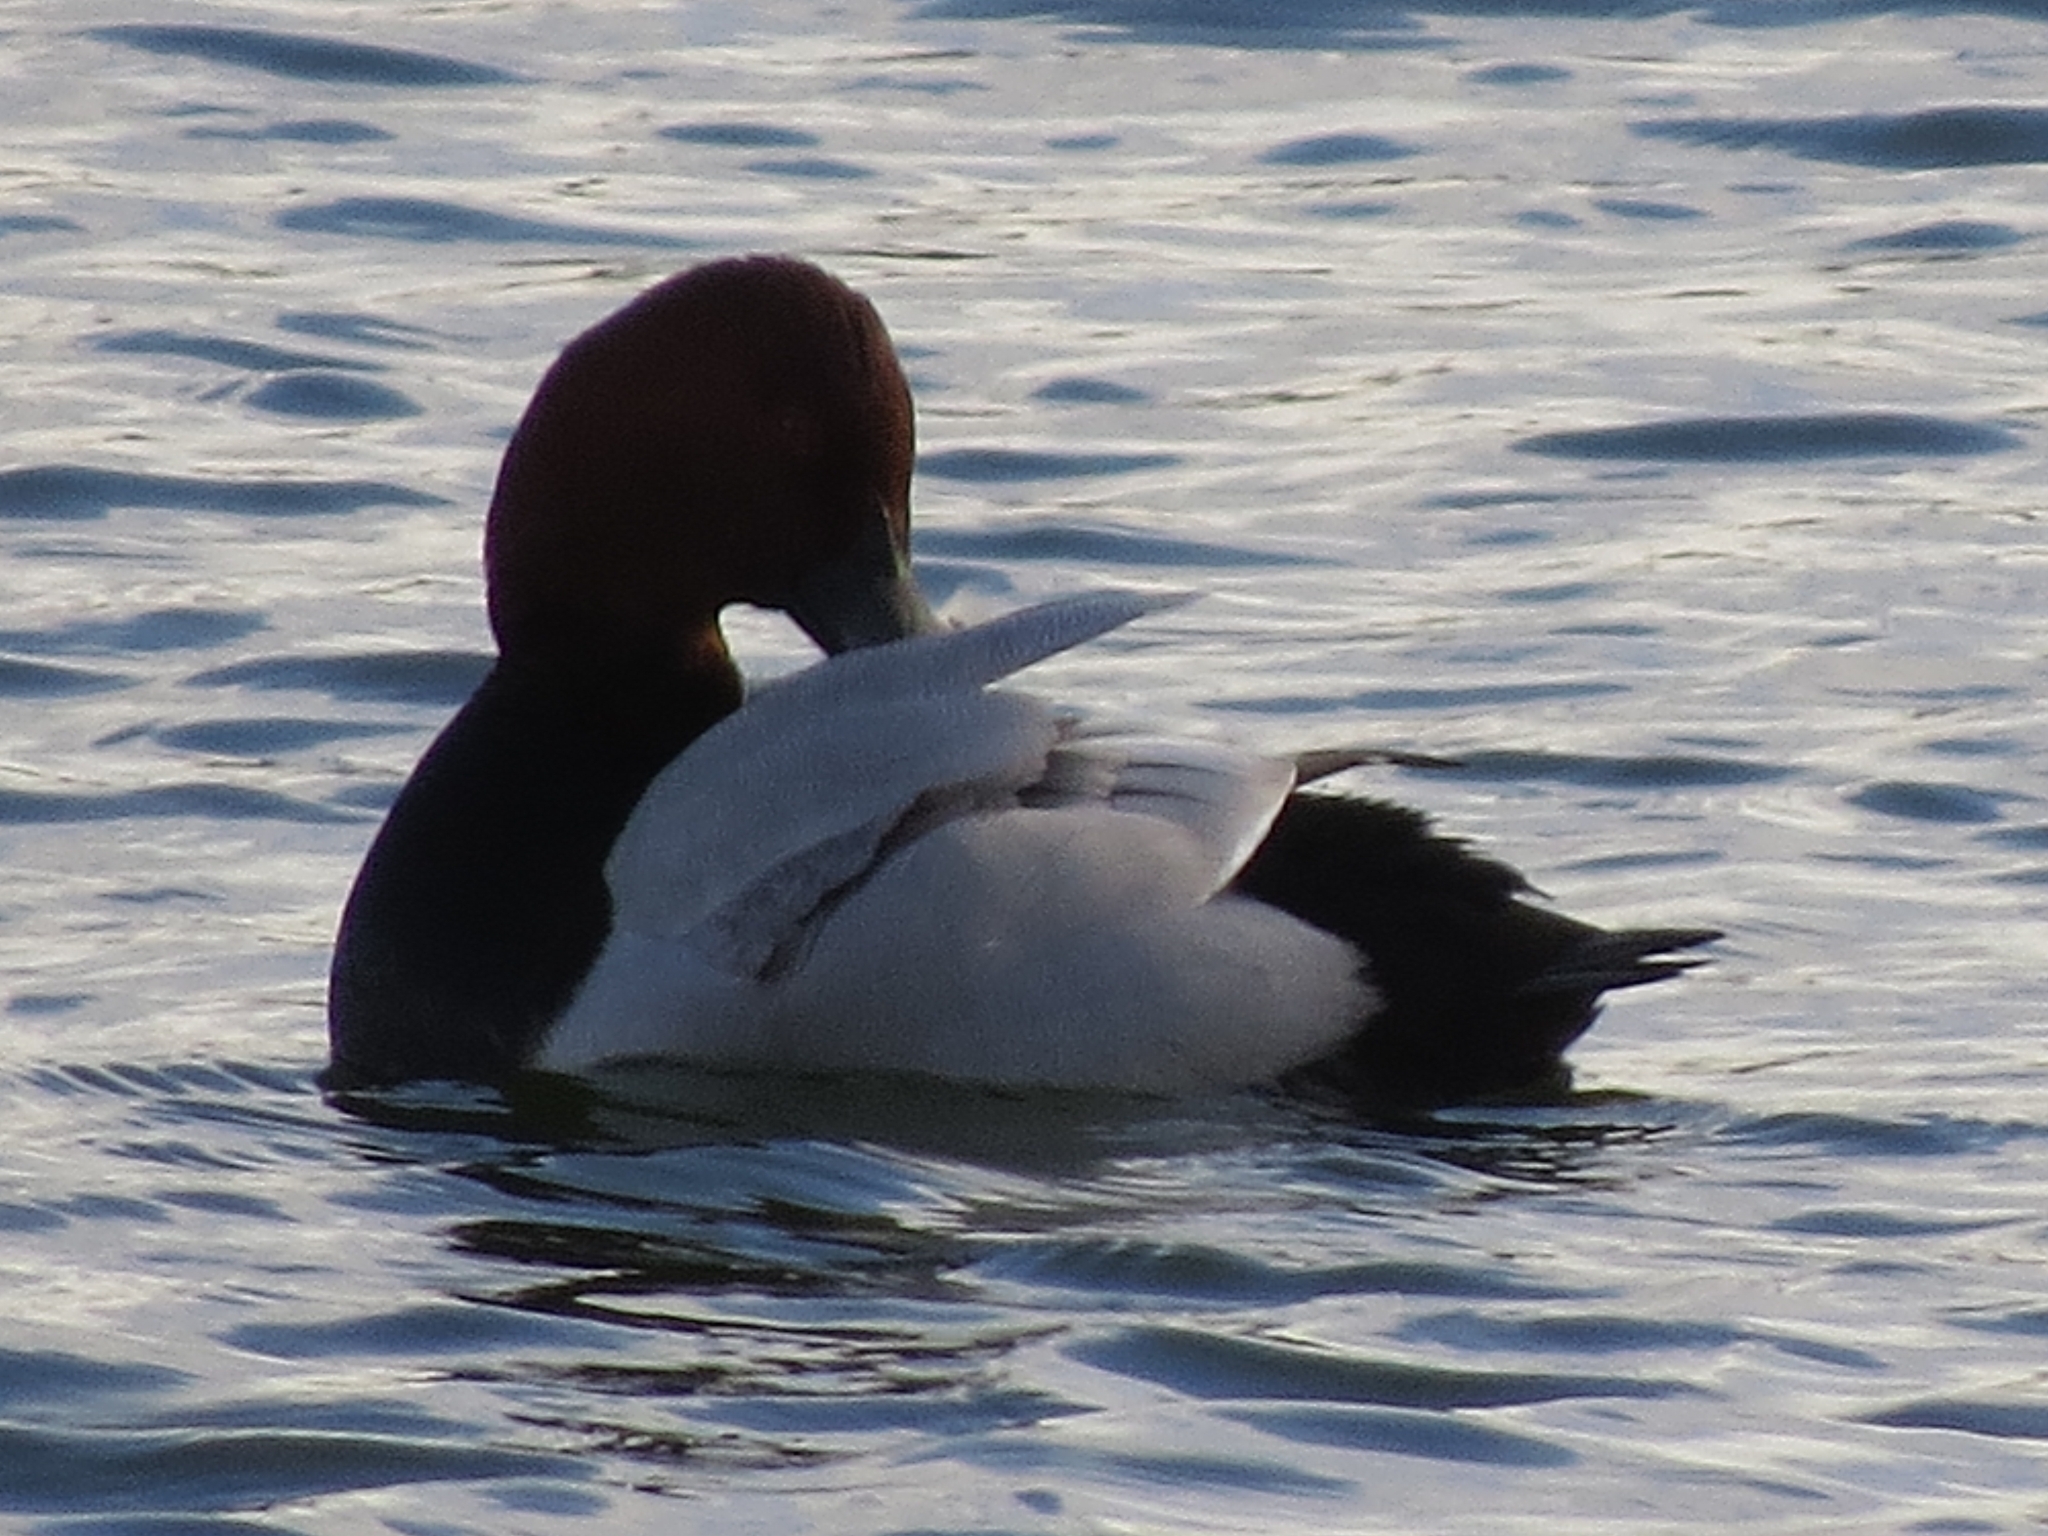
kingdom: Animalia
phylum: Chordata
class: Aves
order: Anseriformes
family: Anatidae
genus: Aythya
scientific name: Aythya ferina
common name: Common pochard
